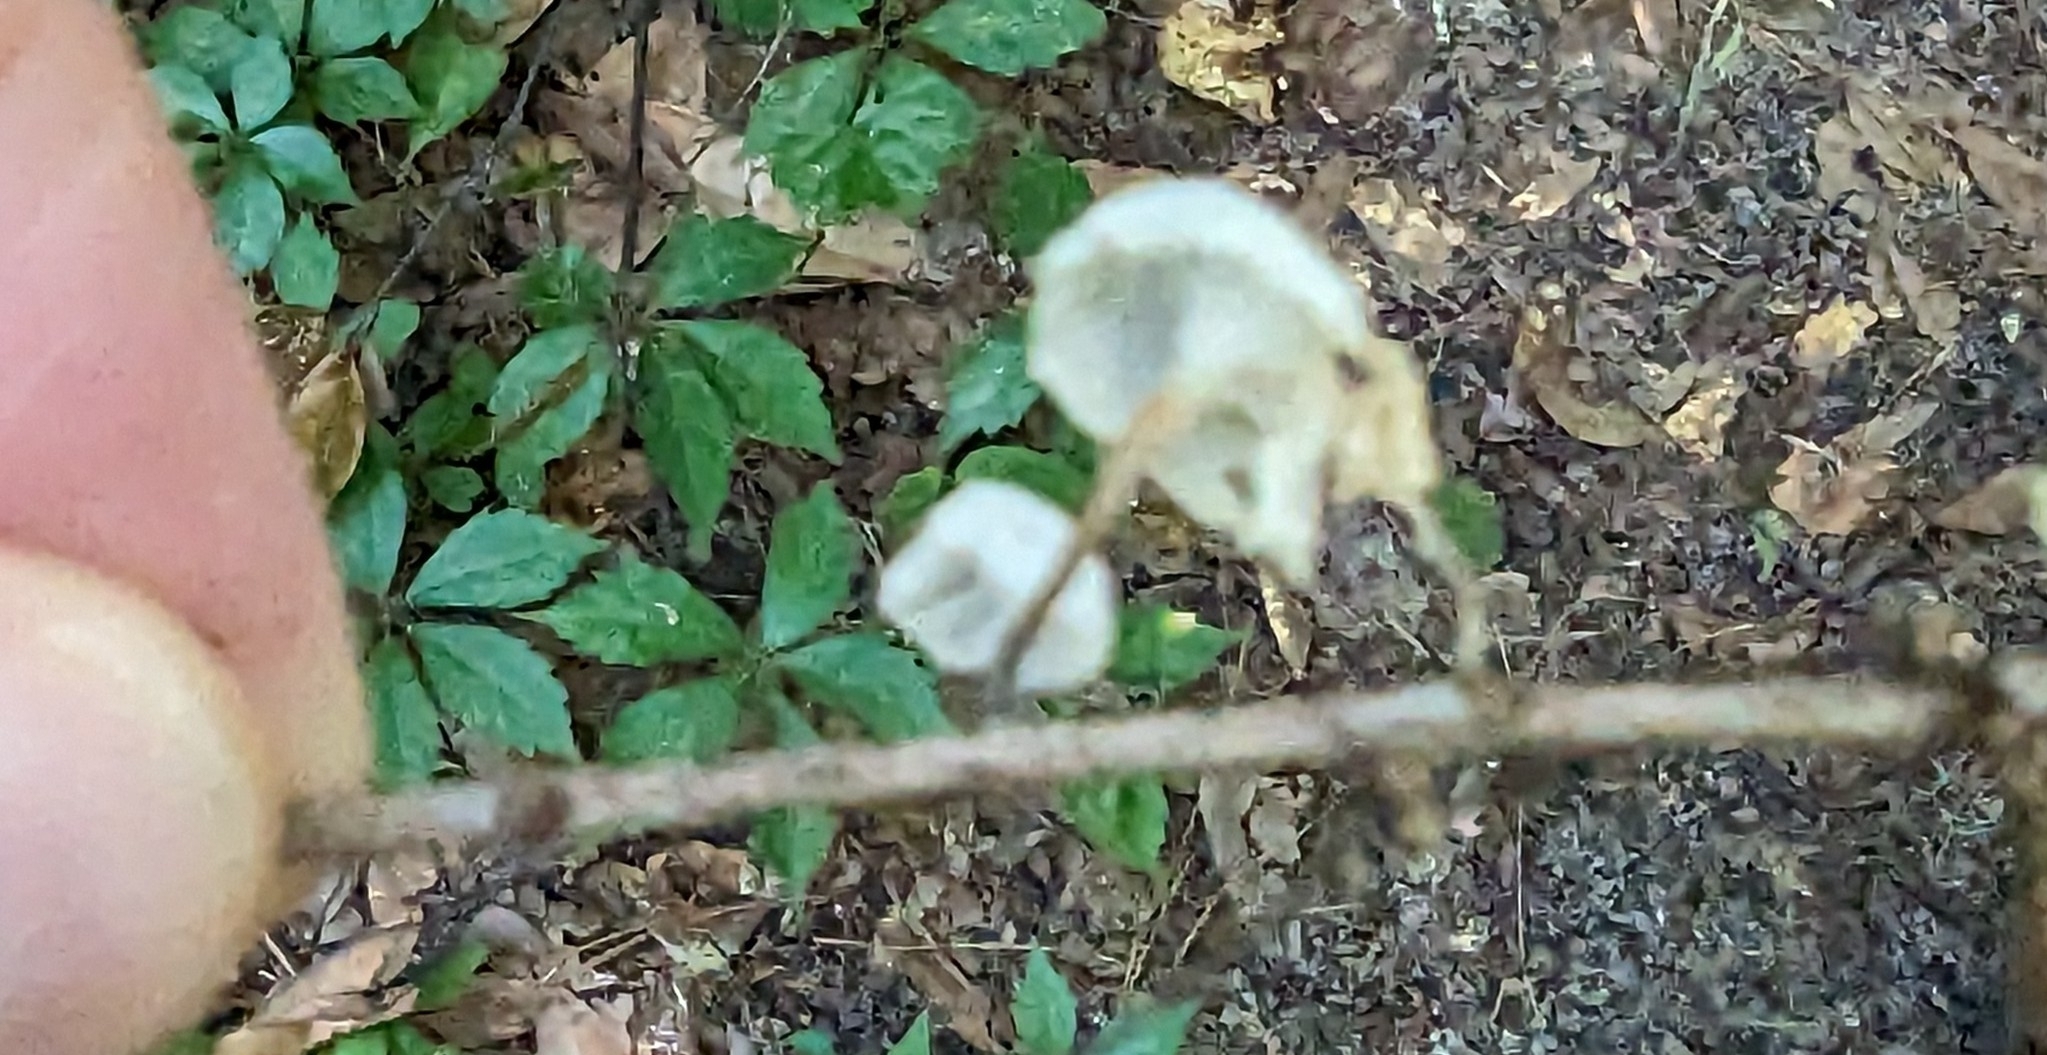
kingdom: Fungi
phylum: Basidiomycota
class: Agaricomycetes
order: Agaricales
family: Marasmiaceae
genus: Tetrapyrgos
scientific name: Tetrapyrgos nigripes
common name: Black-stalked marasmius
